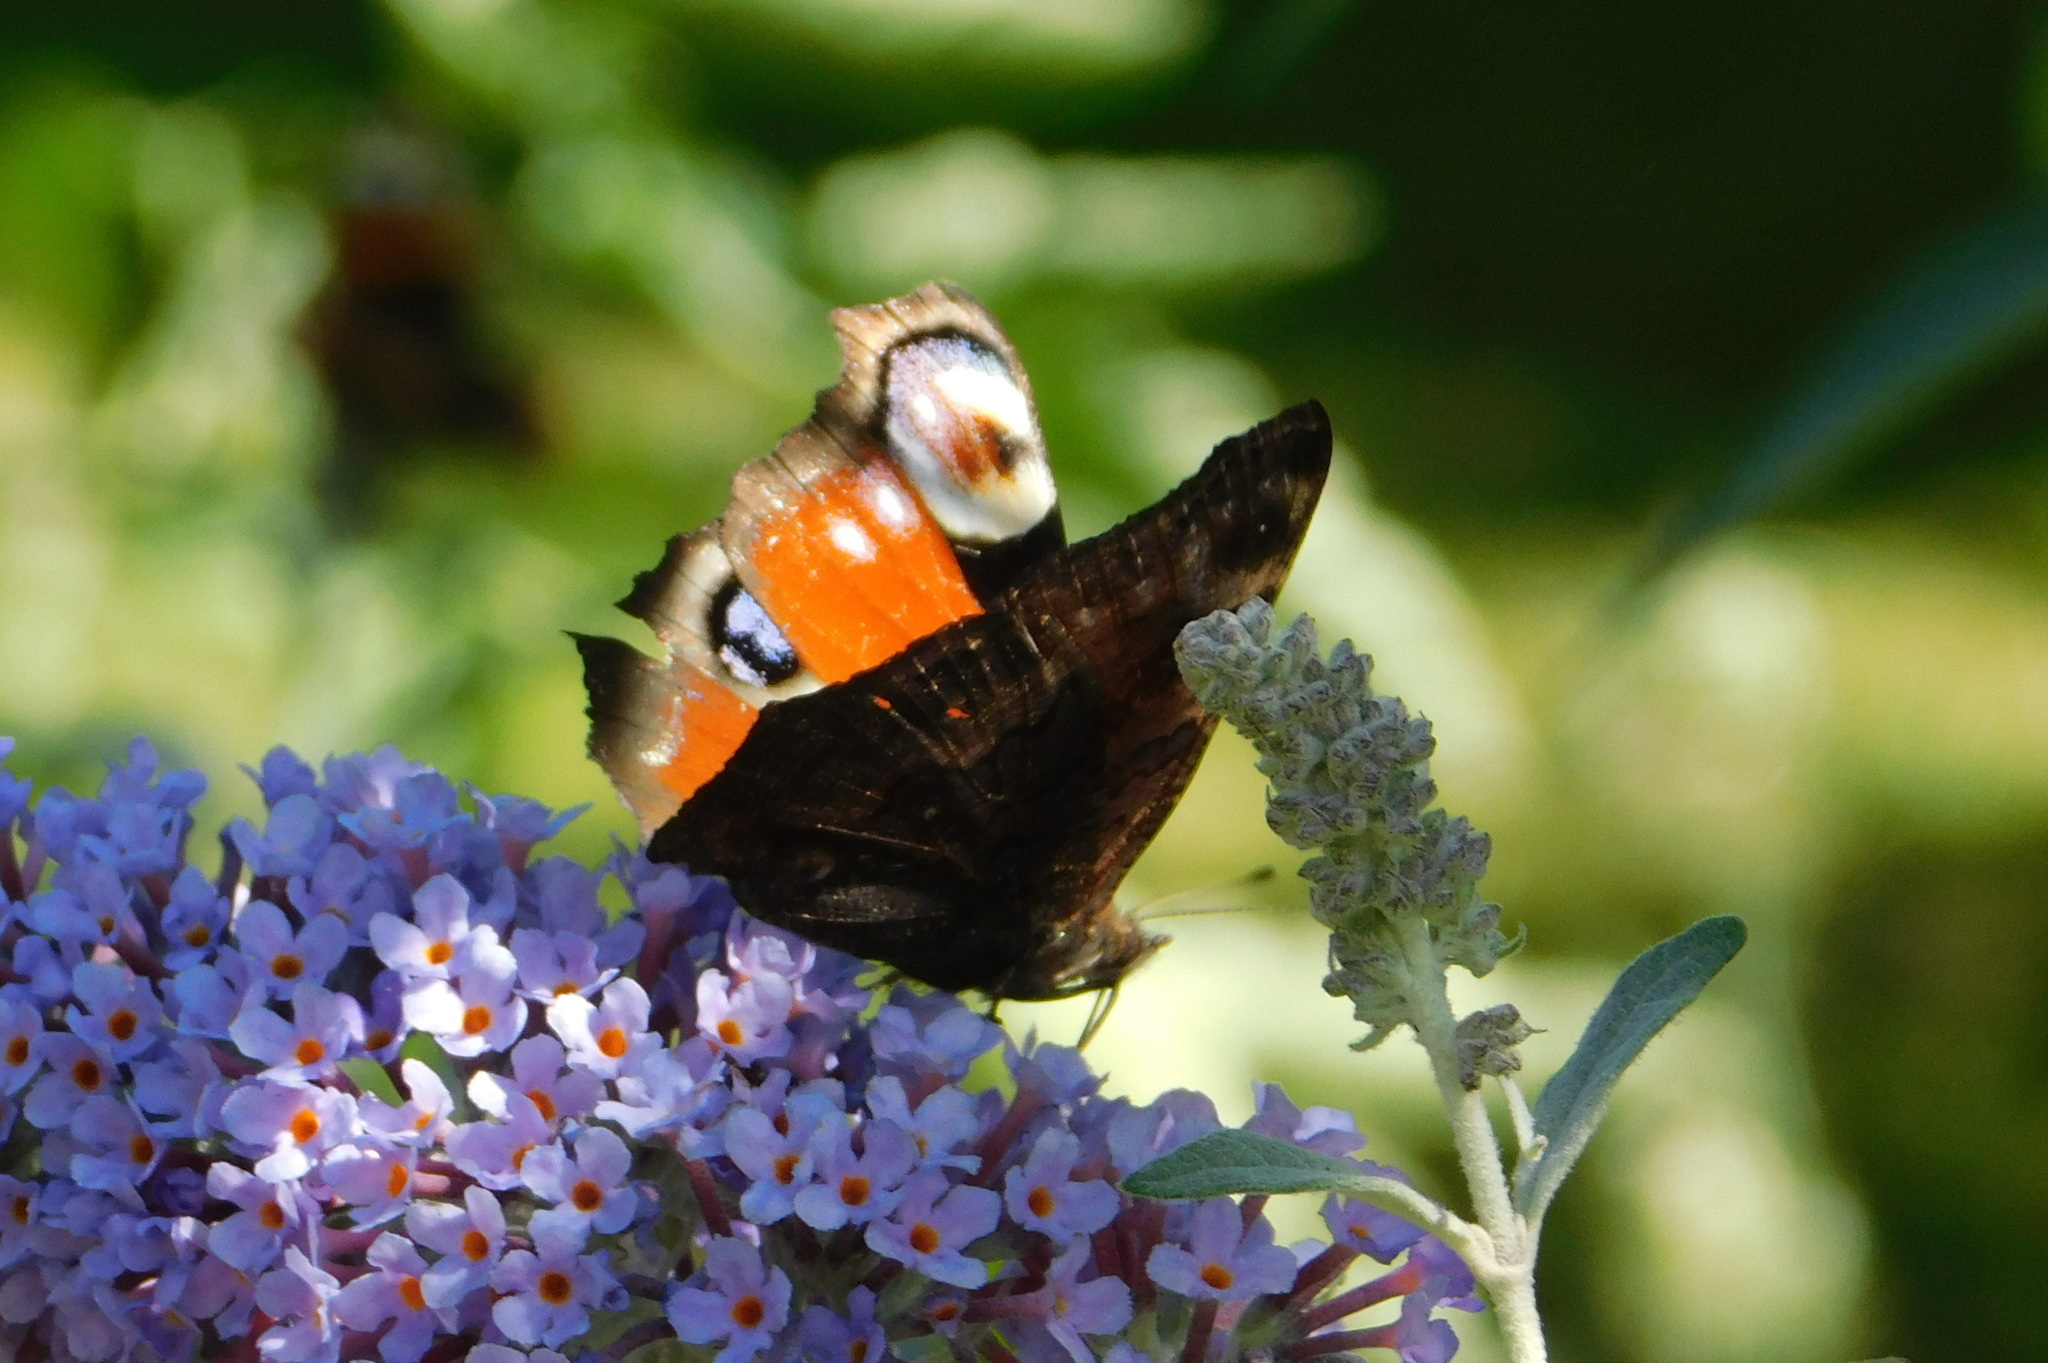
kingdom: Animalia
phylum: Arthropoda
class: Insecta
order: Lepidoptera
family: Nymphalidae
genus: Aglais
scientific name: Aglais io
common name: Peacock
